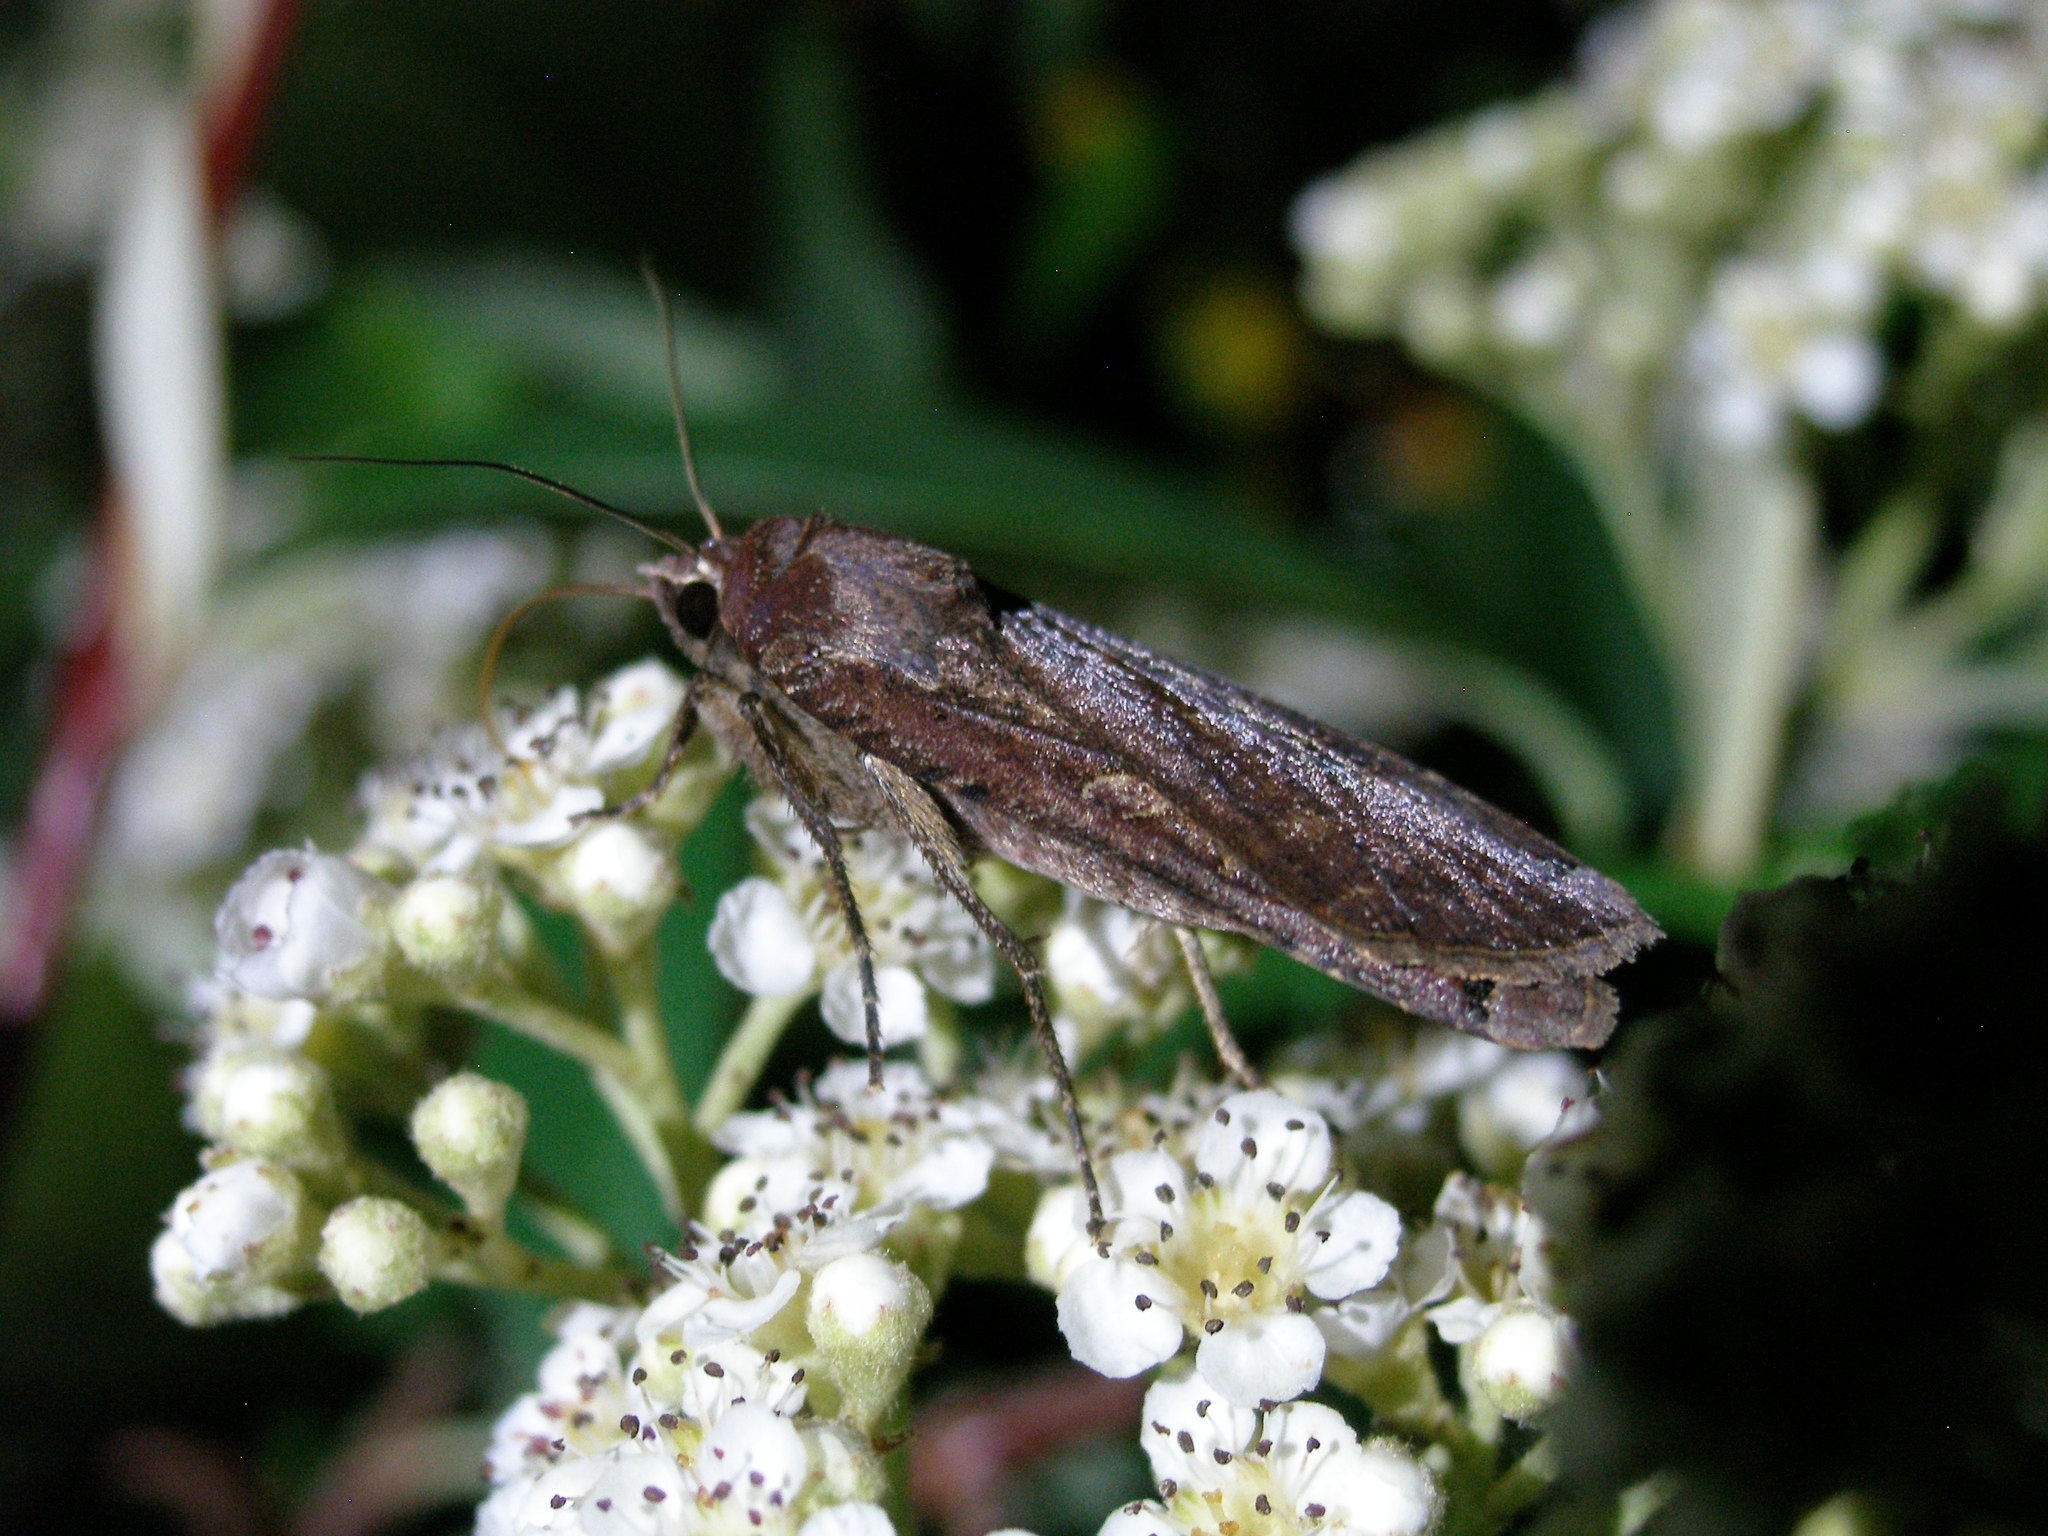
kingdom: Animalia
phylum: Arthropoda
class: Insecta
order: Lepidoptera
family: Noctuidae
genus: Noctua
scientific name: Noctua pronuba
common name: Large yellow underwing
